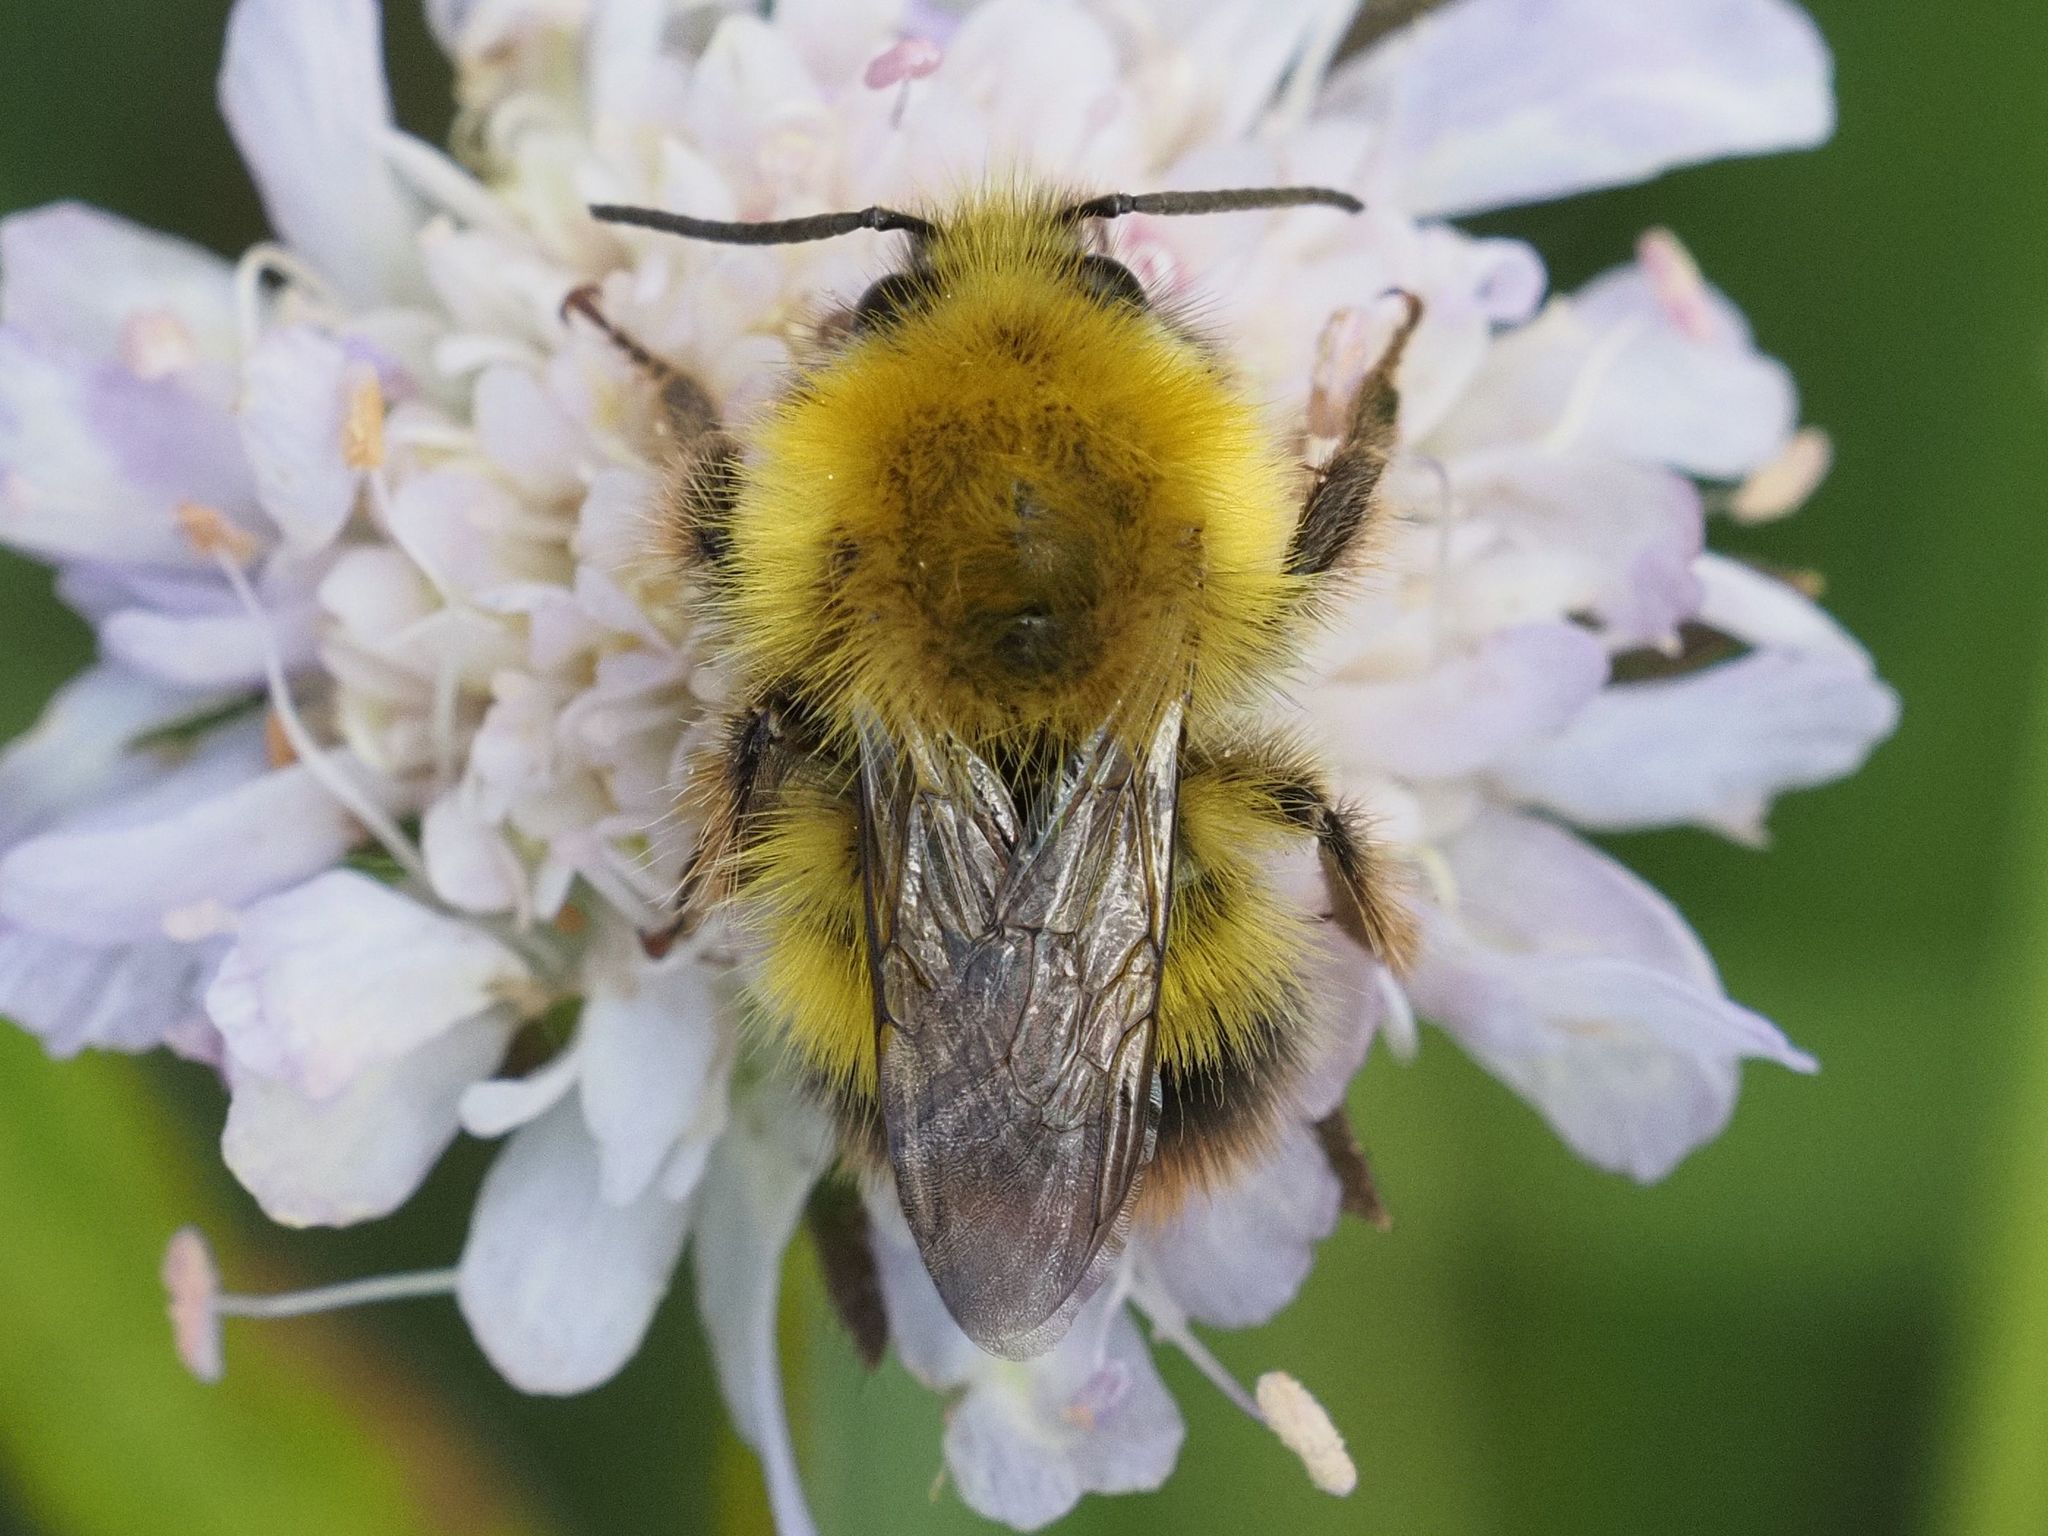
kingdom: Animalia
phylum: Arthropoda
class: Insecta
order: Hymenoptera
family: Apidae
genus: Bombus
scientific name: Bombus pratorum
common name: Early humble-bee
